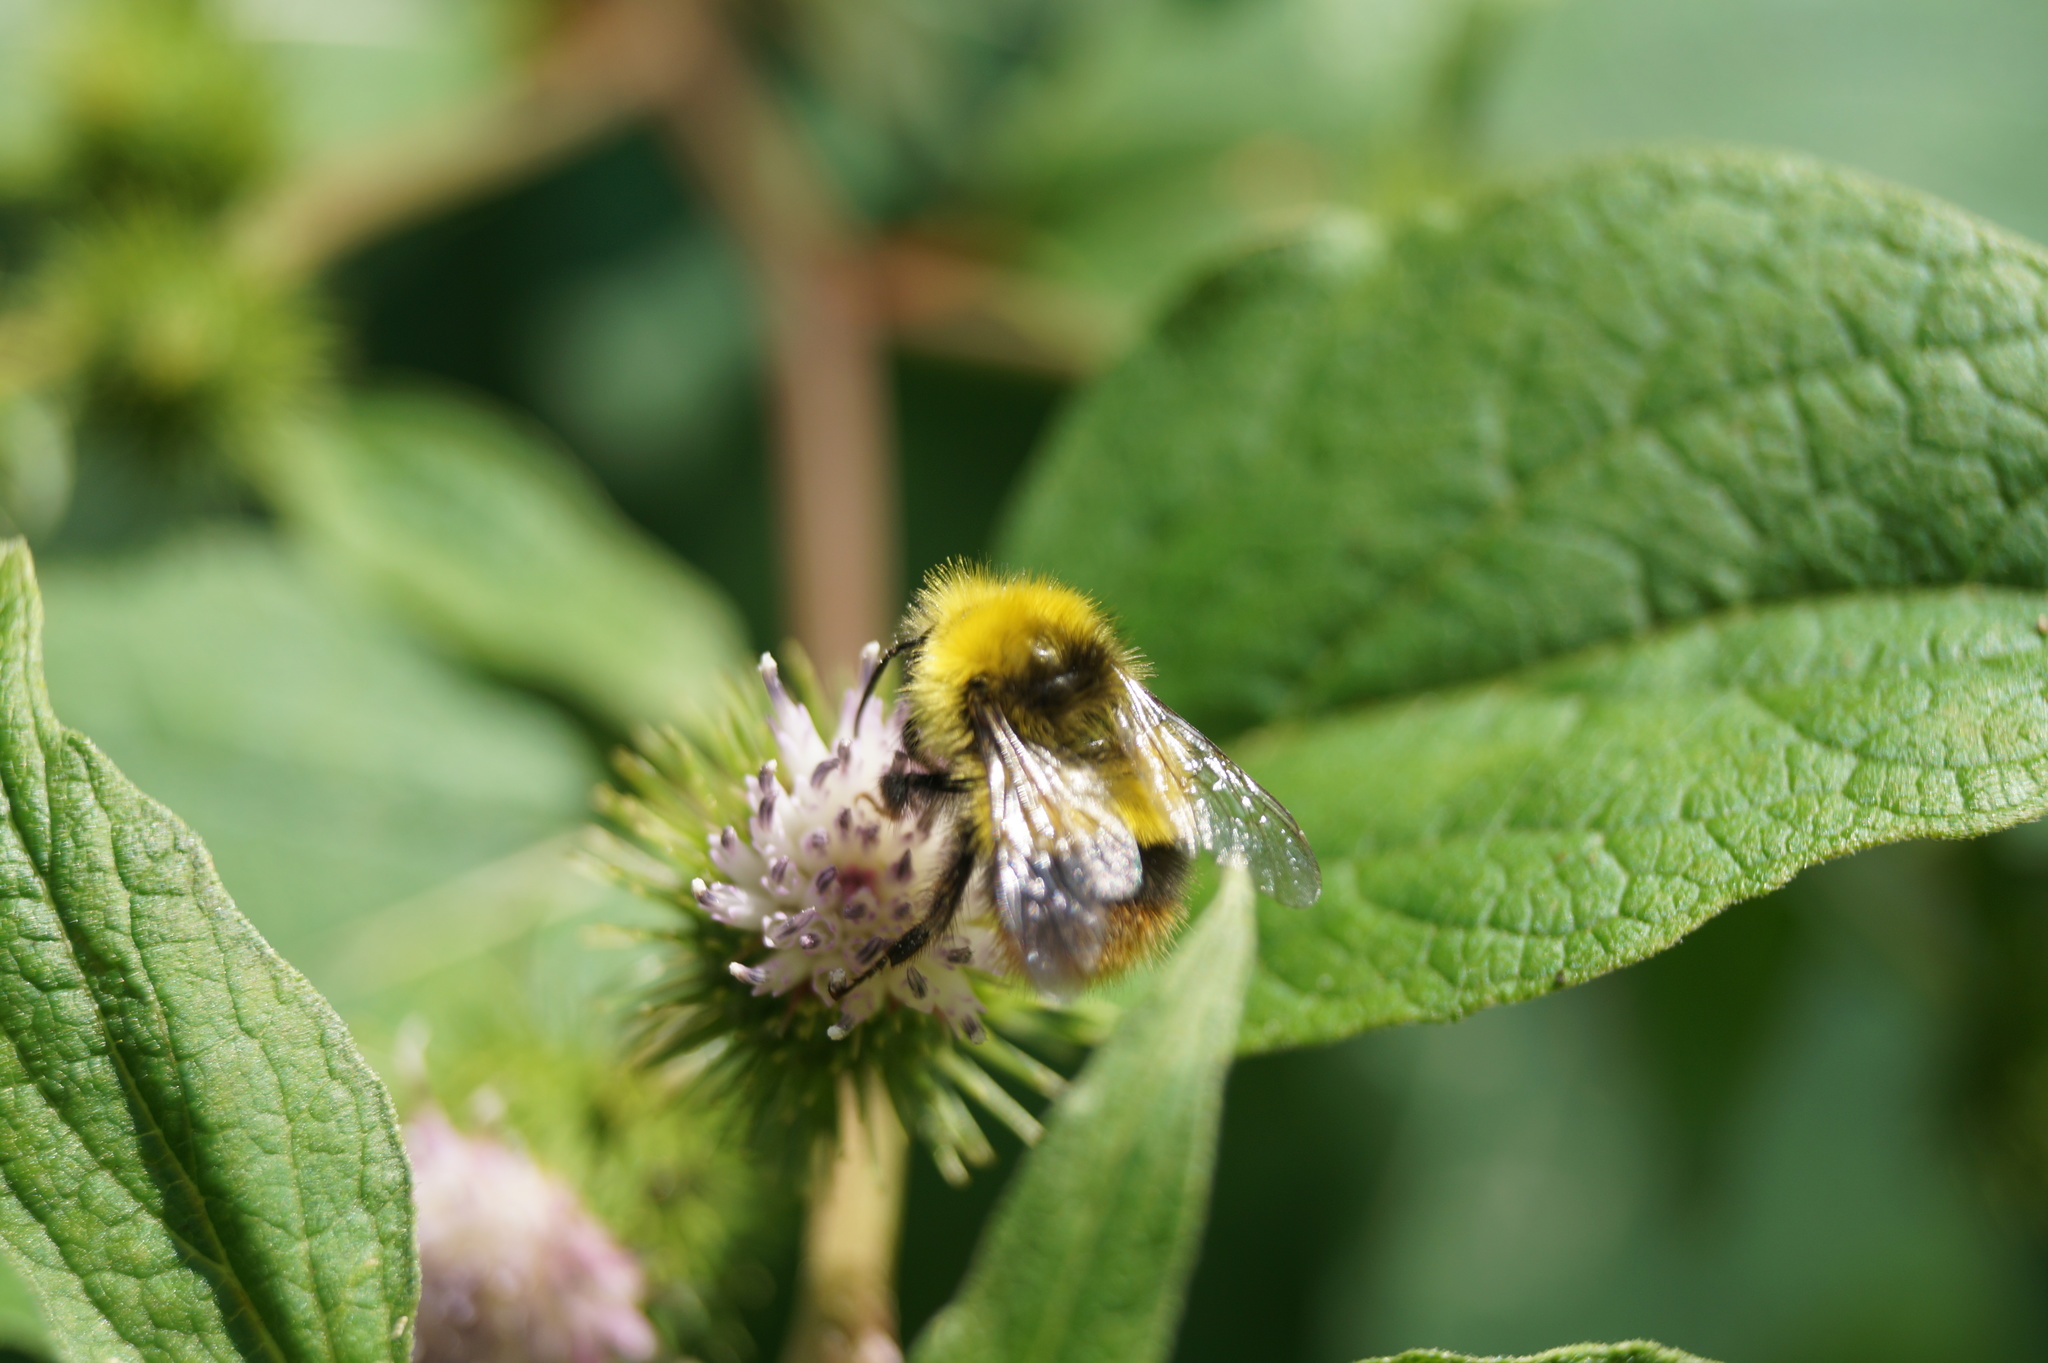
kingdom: Animalia
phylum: Arthropoda
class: Insecta
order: Hymenoptera
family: Apidae
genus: Bombus
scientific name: Bombus pratorum
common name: Early humble-bee
